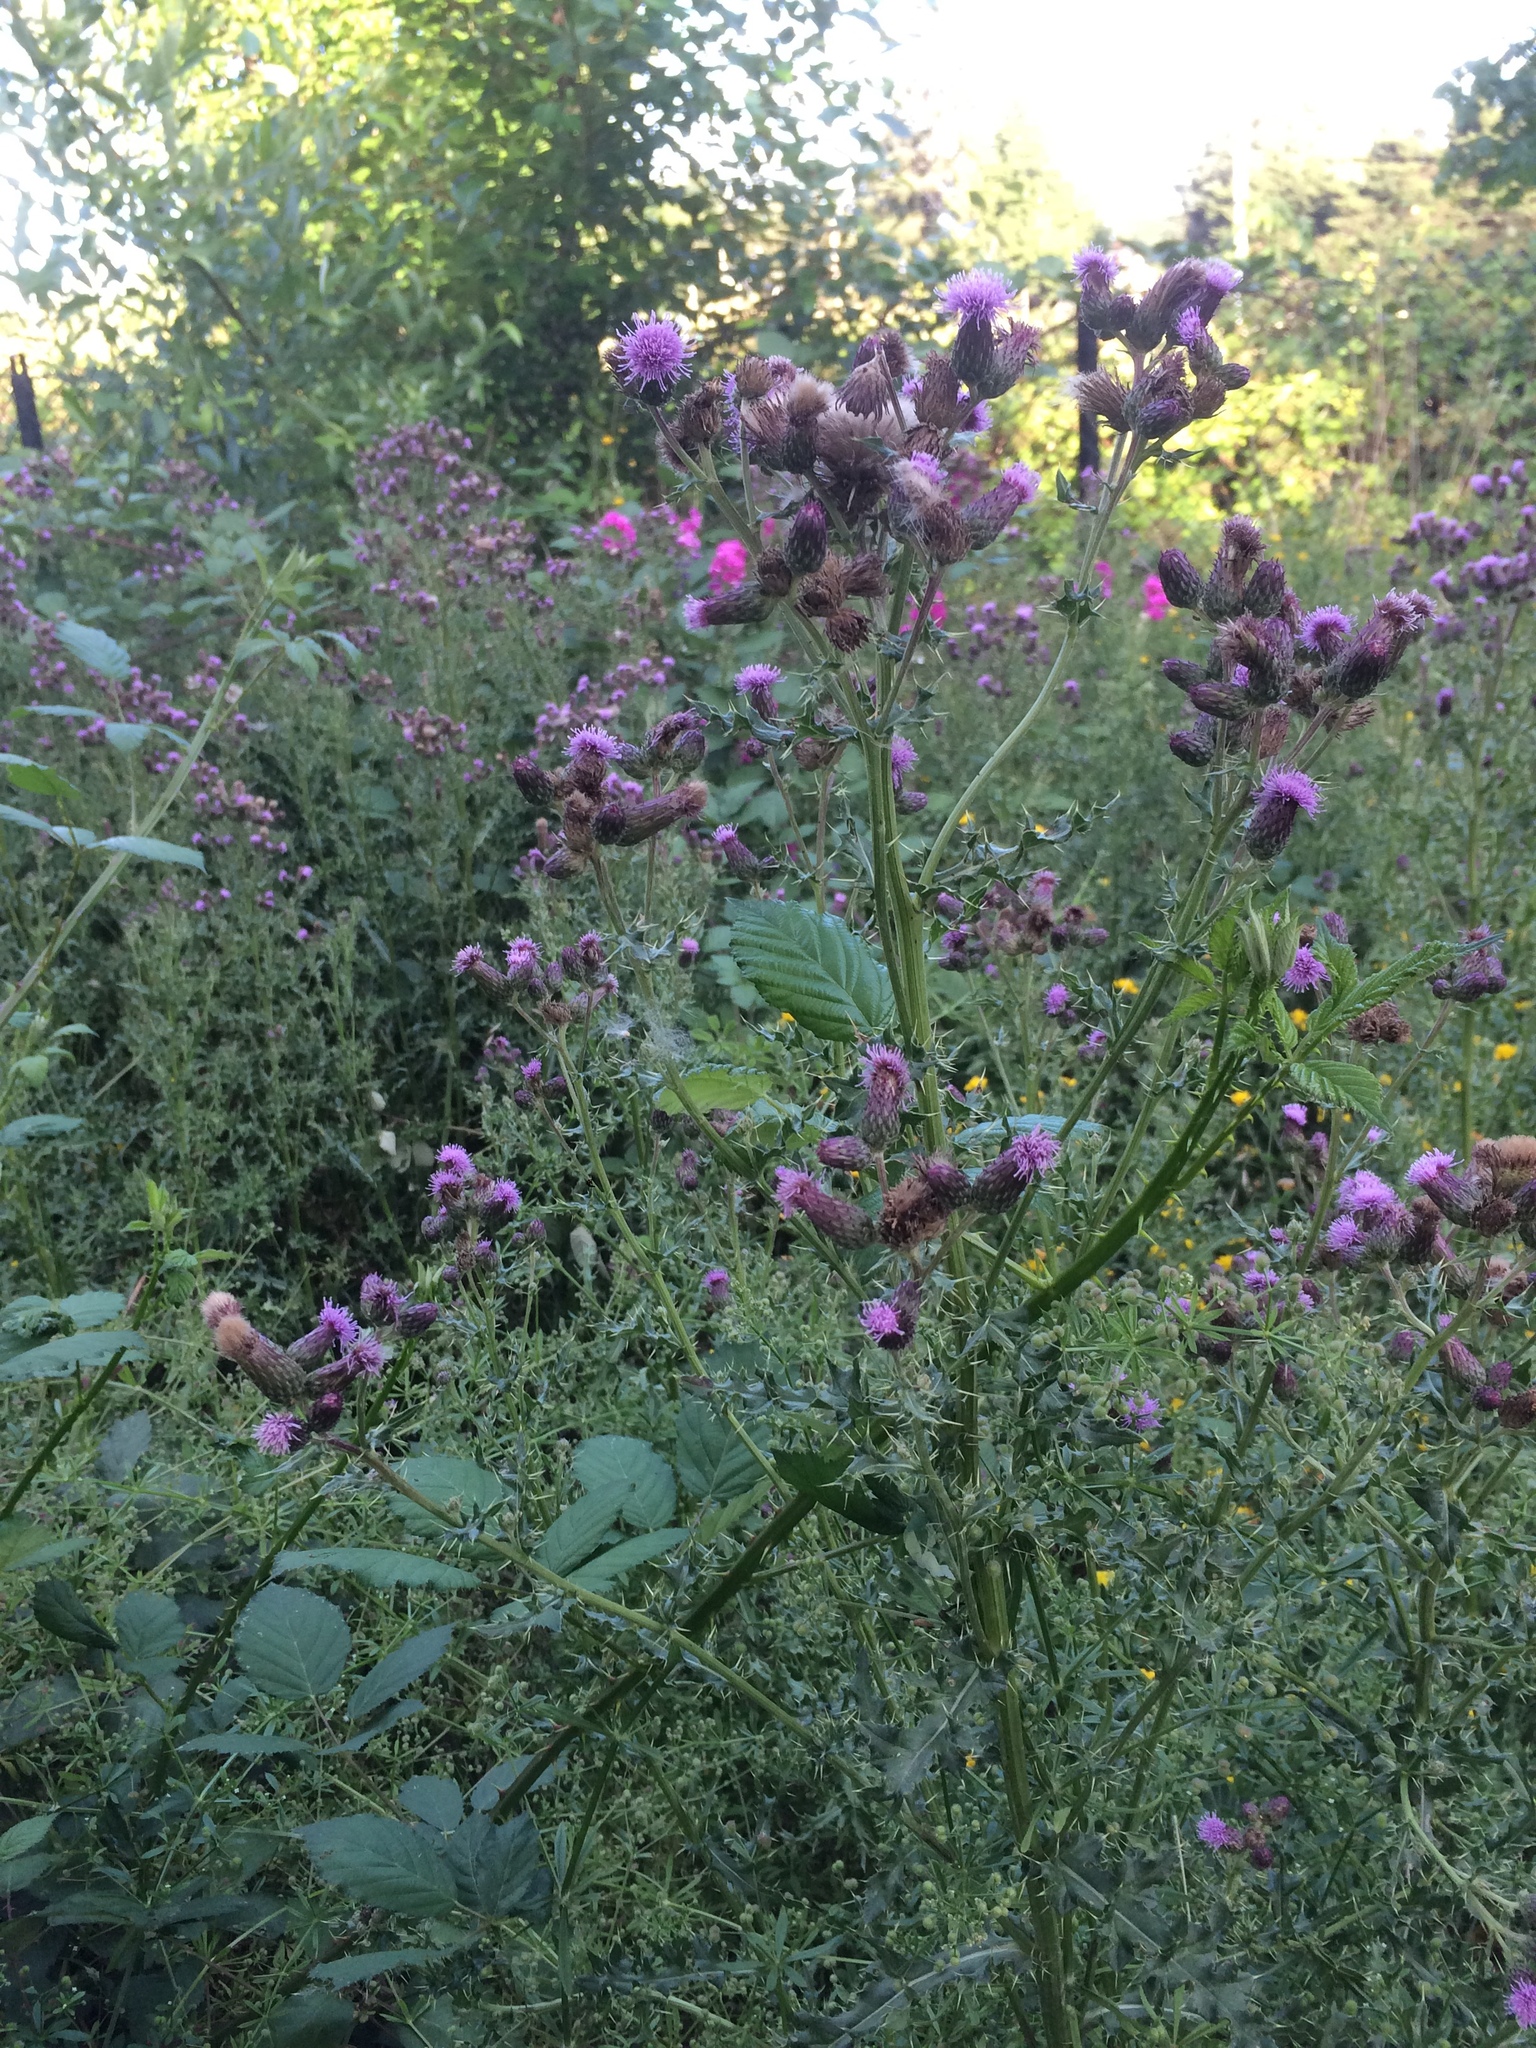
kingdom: Plantae
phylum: Tracheophyta
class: Magnoliopsida
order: Asterales
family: Asteraceae
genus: Cirsium
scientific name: Cirsium arvense
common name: Creeping thistle
